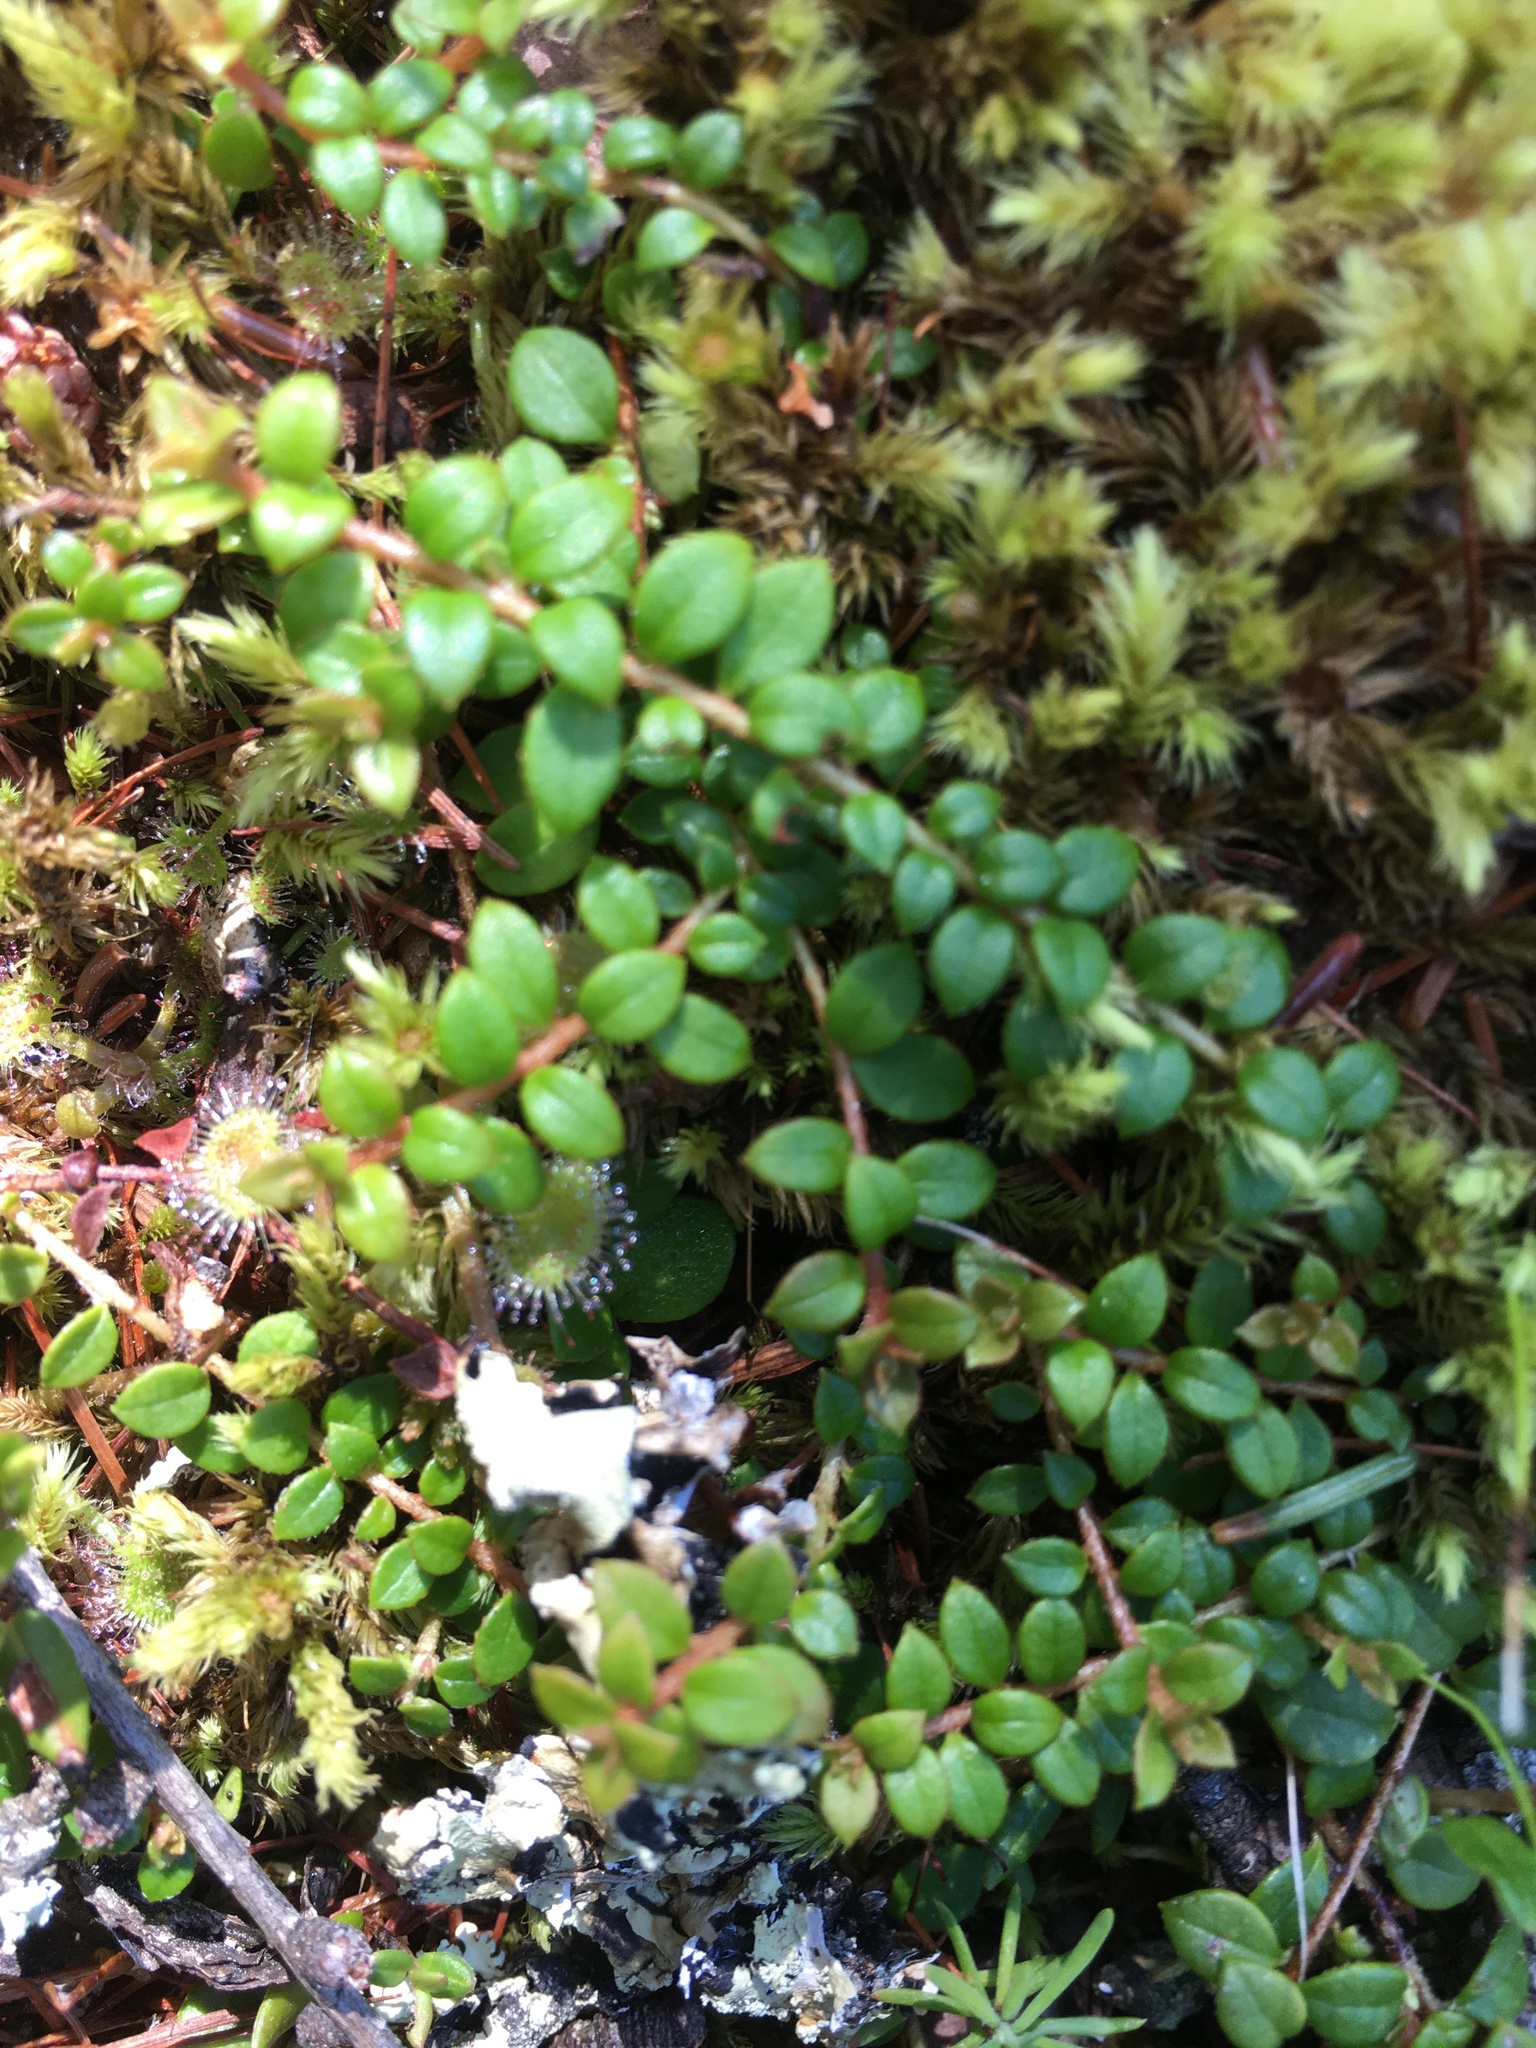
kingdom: Plantae
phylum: Tracheophyta
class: Magnoliopsida
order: Ericales
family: Ericaceae
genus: Gaultheria
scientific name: Gaultheria hispidula
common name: Cancer wintergreen
